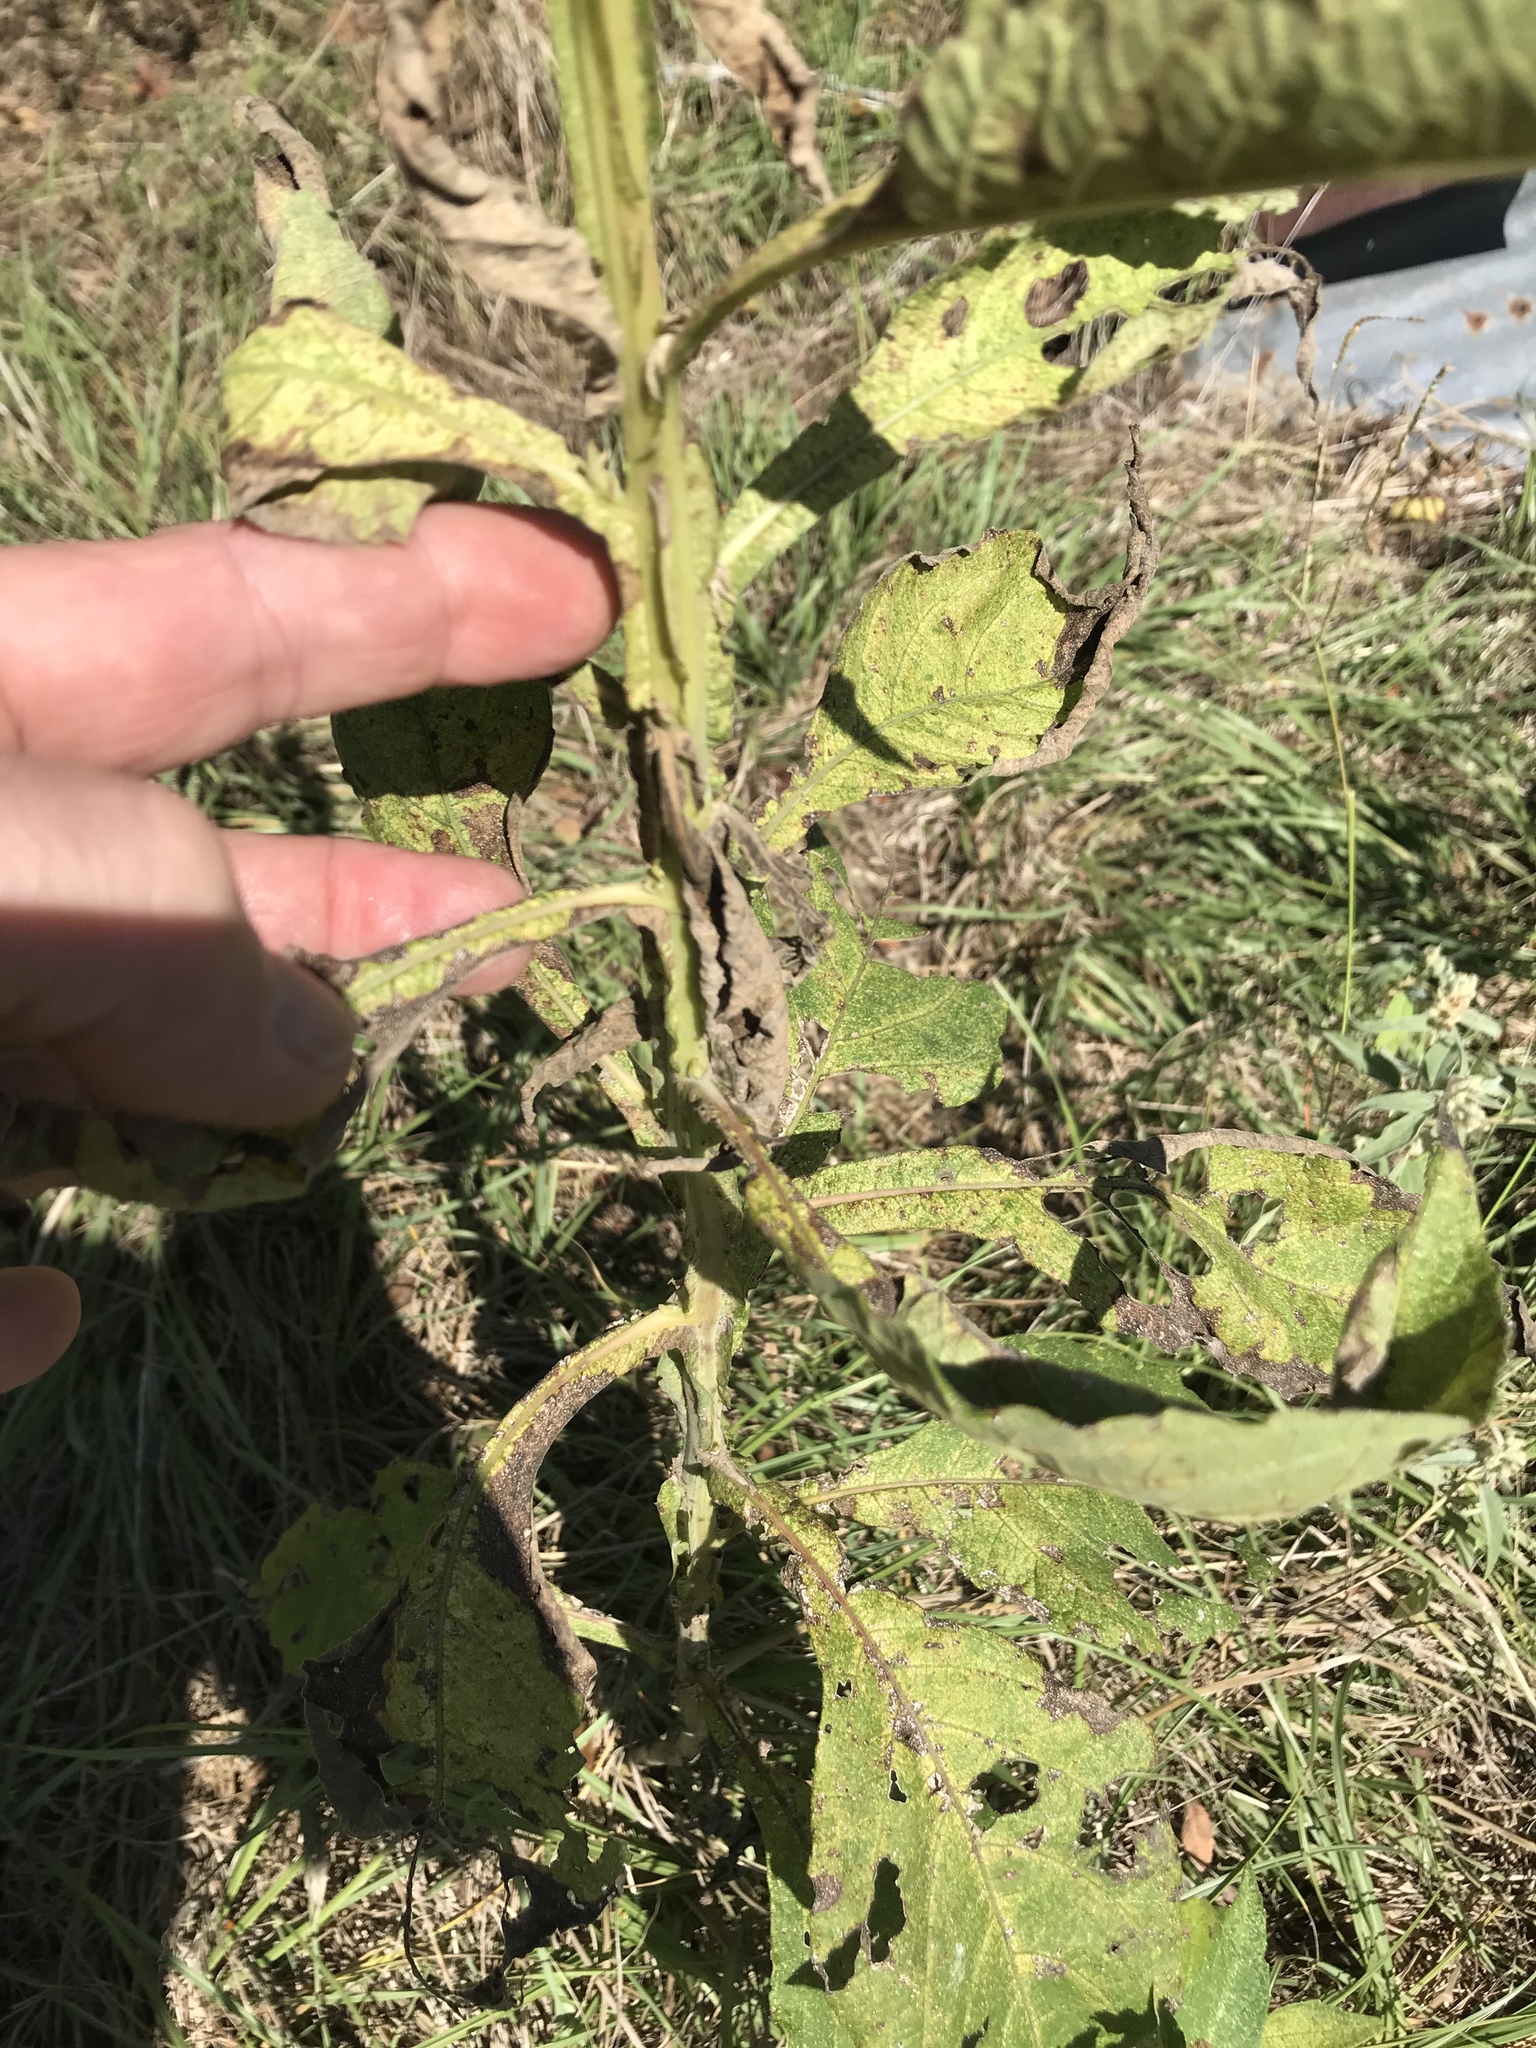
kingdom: Plantae
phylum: Tracheophyta
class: Magnoliopsida
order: Asterales
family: Asteraceae
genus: Verbesina
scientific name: Verbesina virginica
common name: Frostweed
